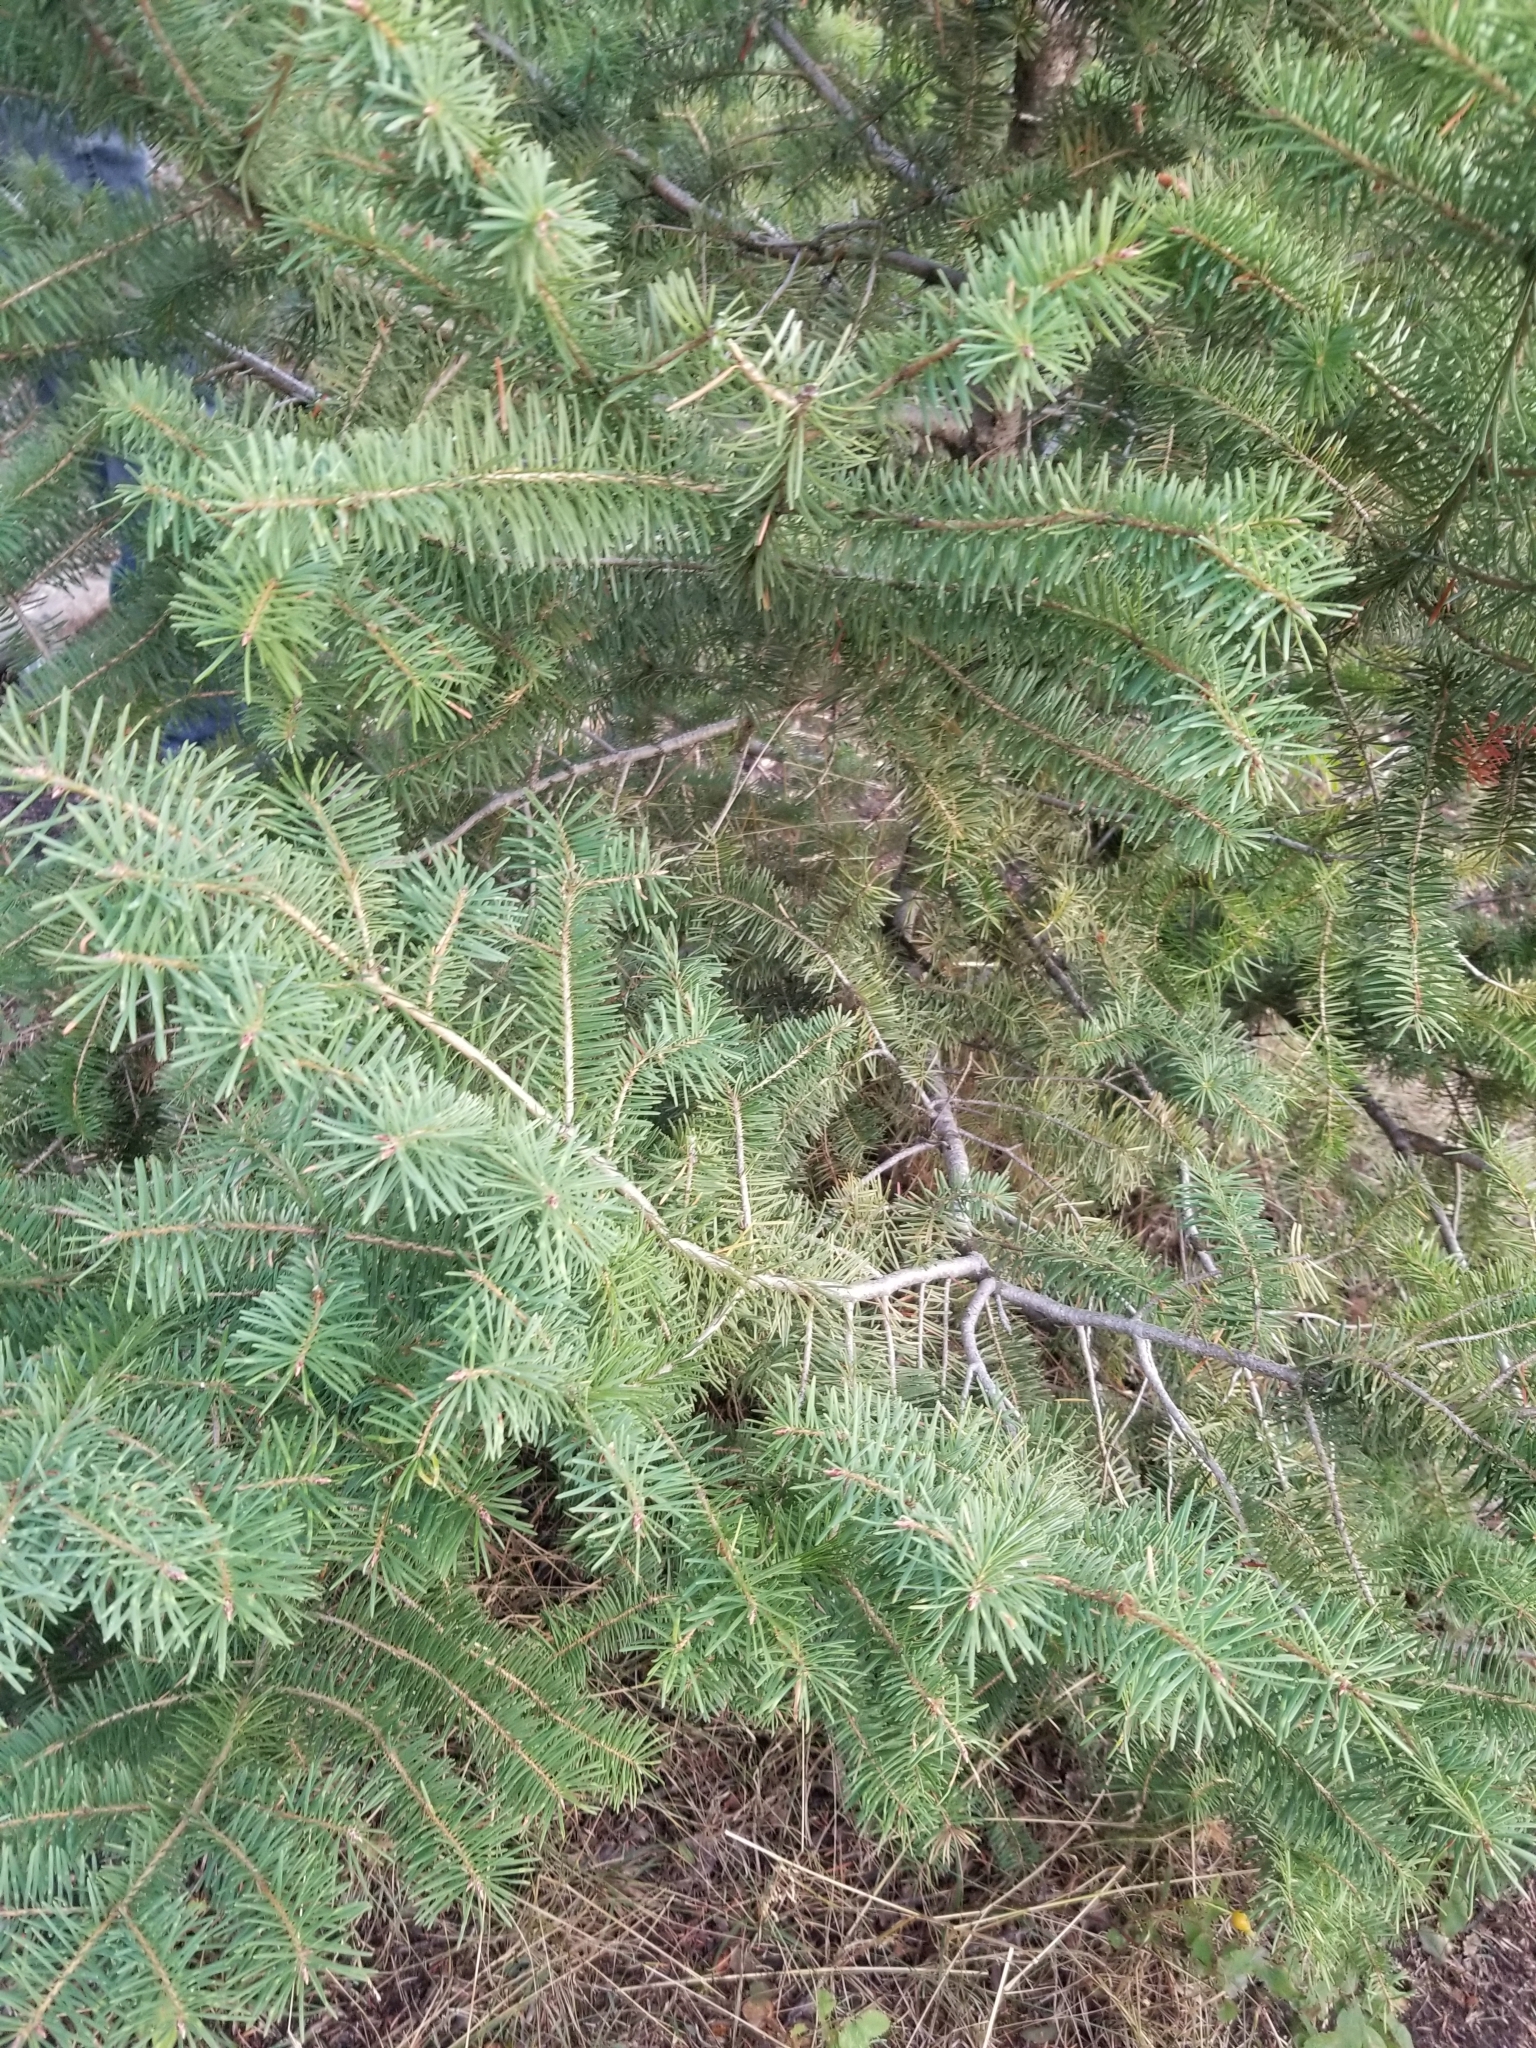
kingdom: Plantae
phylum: Tracheophyta
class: Pinopsida
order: Pinales
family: Pinaceae
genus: Pseudotsuga
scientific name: Pseudotsuga menziesii
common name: Douglas fir
